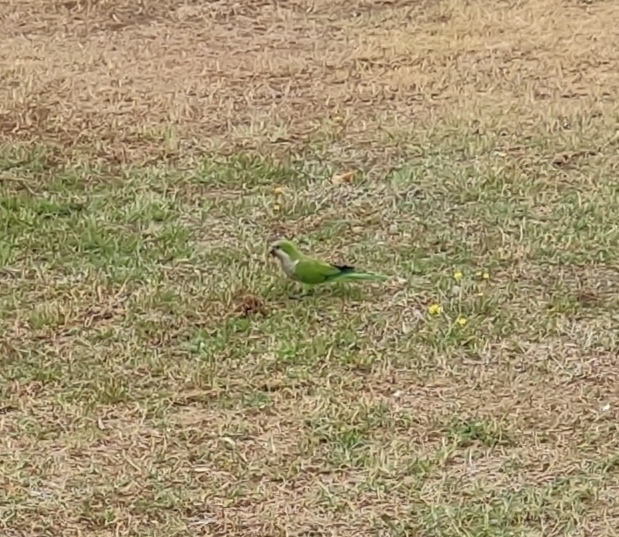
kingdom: Animalia
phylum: Chordata
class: Aves
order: Psittaciformes
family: Psittacidae
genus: Myiopsitta
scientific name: Myiopsitta monachus
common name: Monk parakeet
